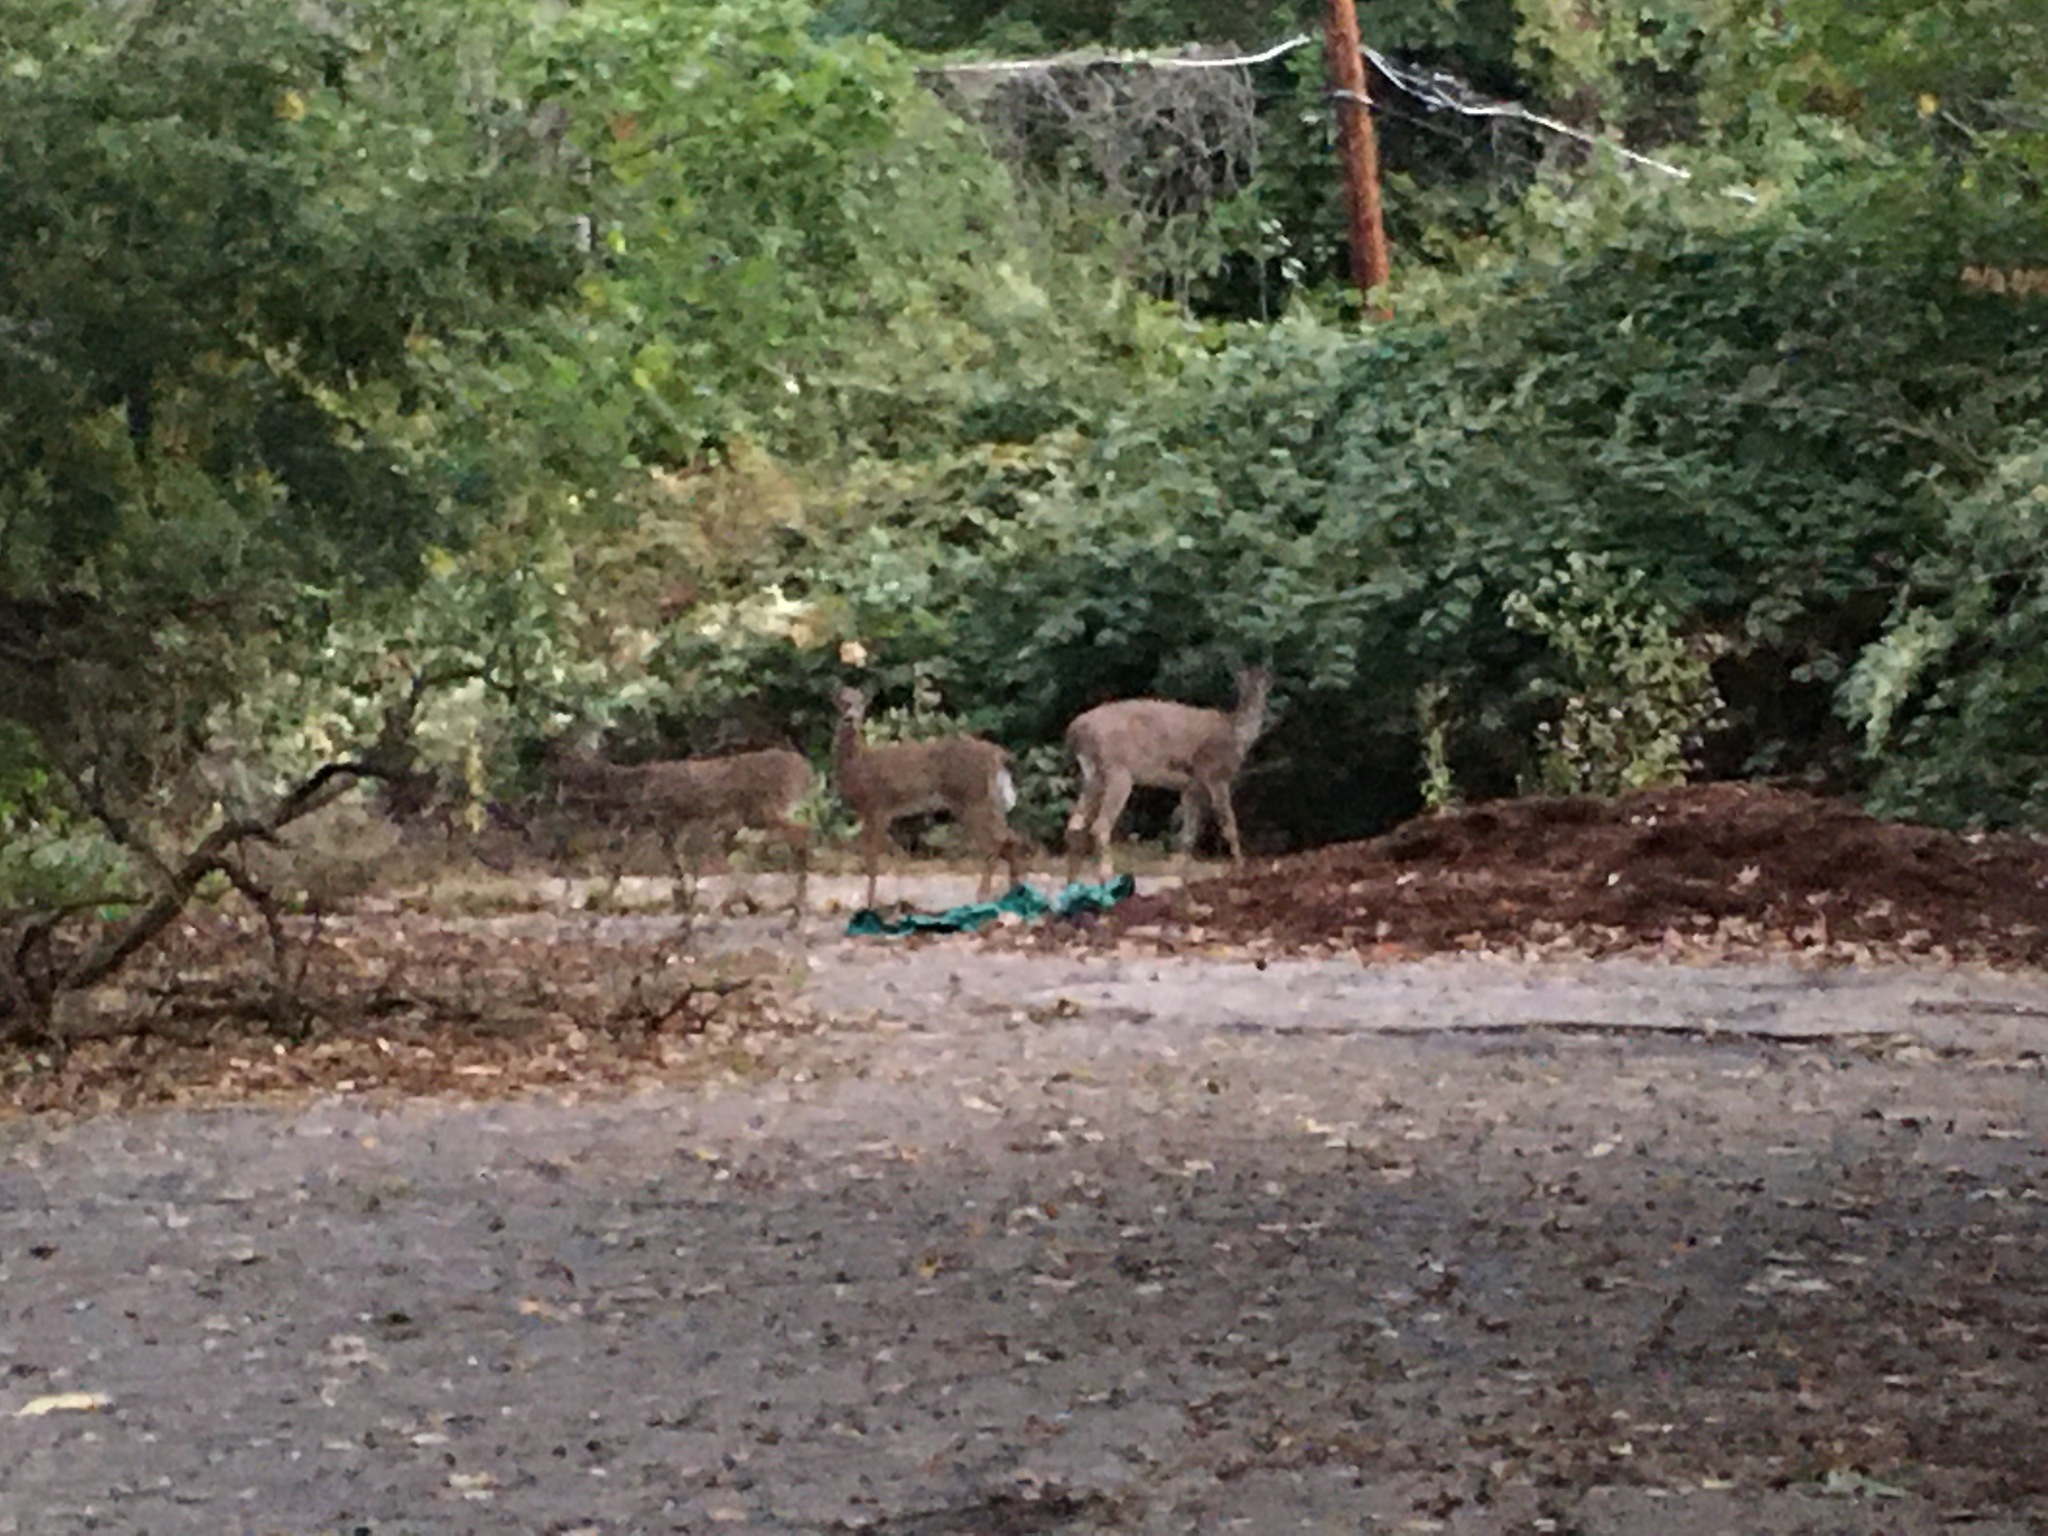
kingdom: Animalia
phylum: Chordata
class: Mammalia
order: Artiodactyla
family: Cervidae
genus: Odocoileus
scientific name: Odocoileus virginianus
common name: White-tailed deer
